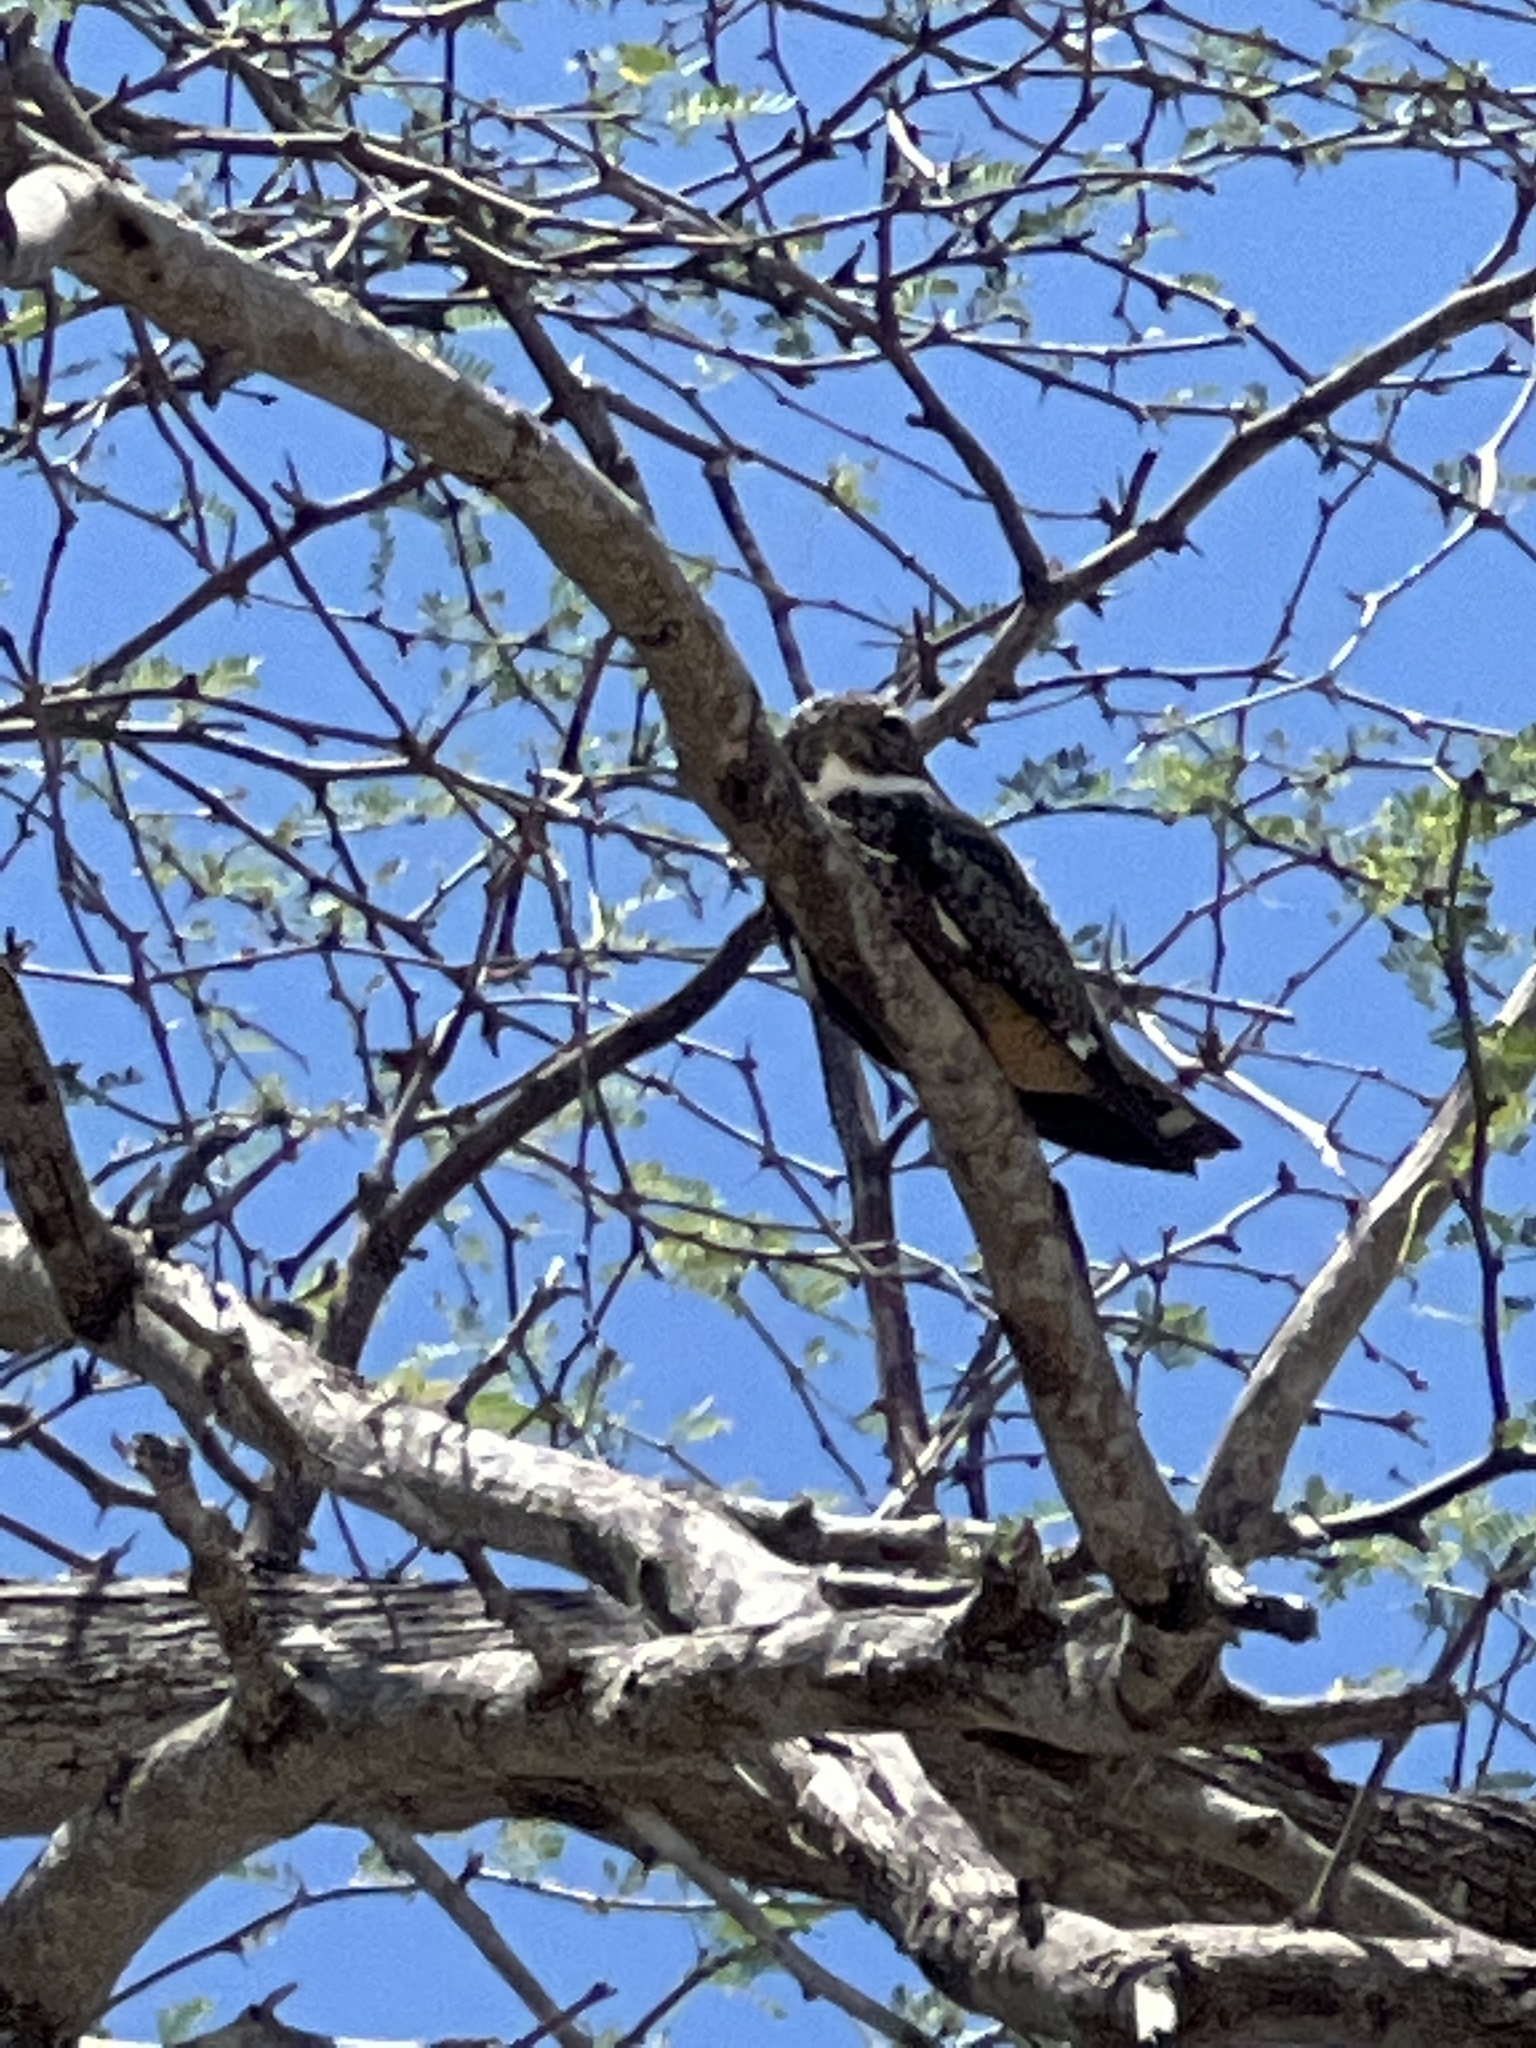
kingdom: Animalia
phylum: Chordata
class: Aves
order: Caprimulgiformes
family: Caprimulgidae
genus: Chordeiles
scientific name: Chordeiles gundlachii
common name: Antillean nighthawk
